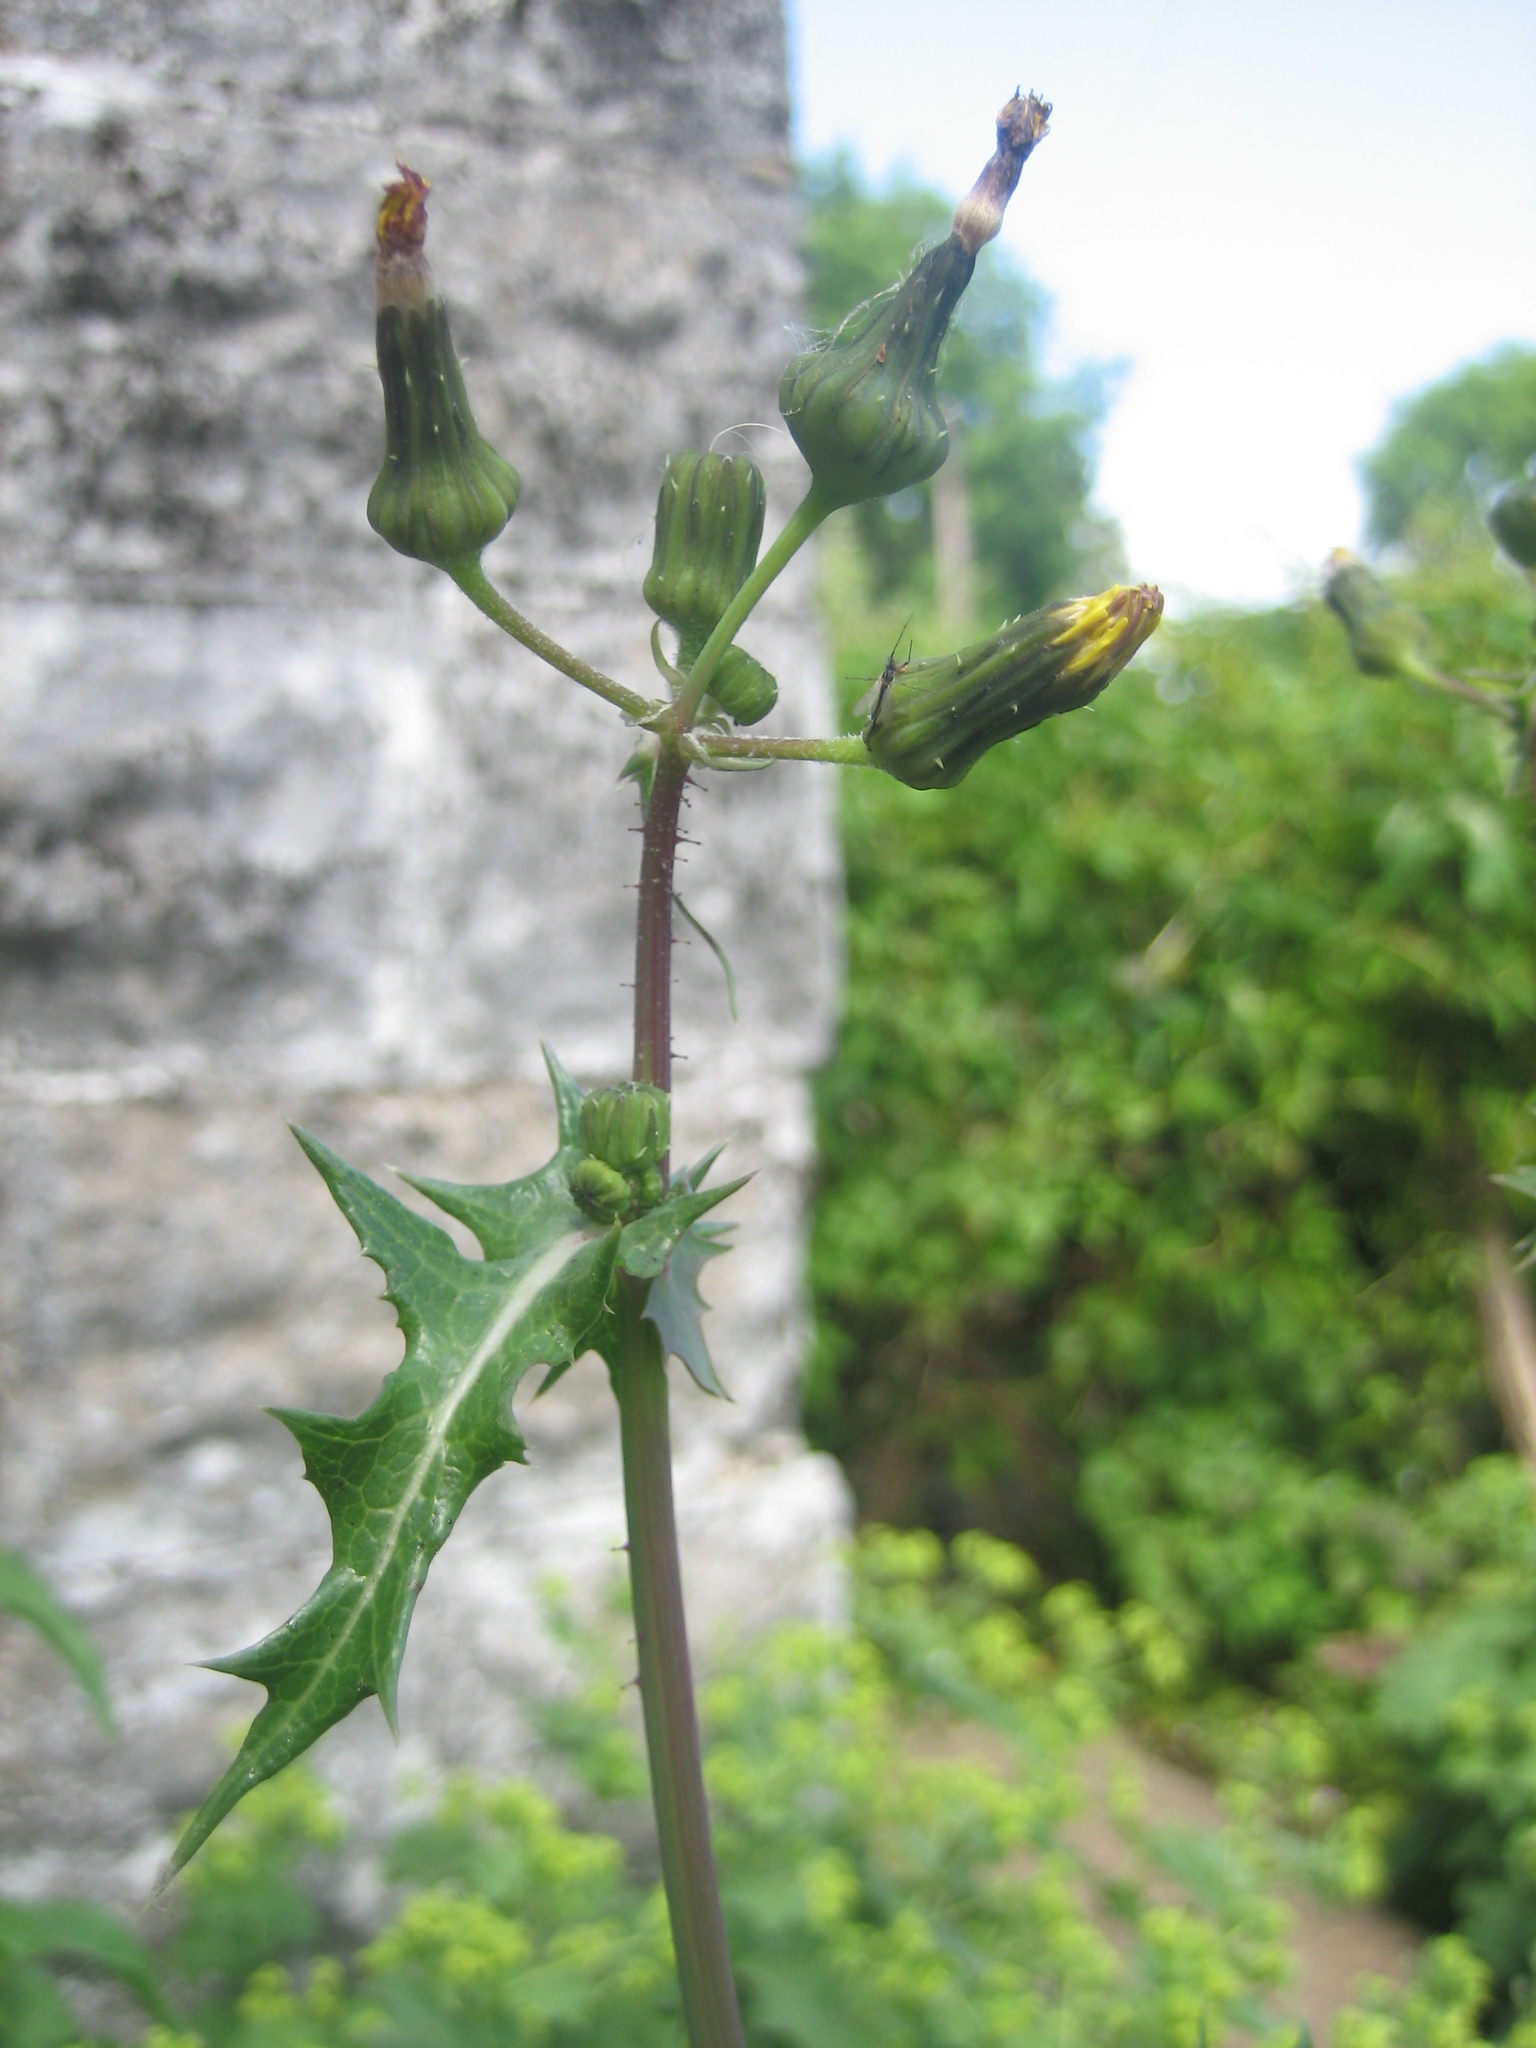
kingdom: Plantae
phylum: Tracheophyta
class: Magnoliopsida
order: Asterales
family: Asteraceae
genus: Sonchus
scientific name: Sonchus asper
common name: Prickly sow-thistle
